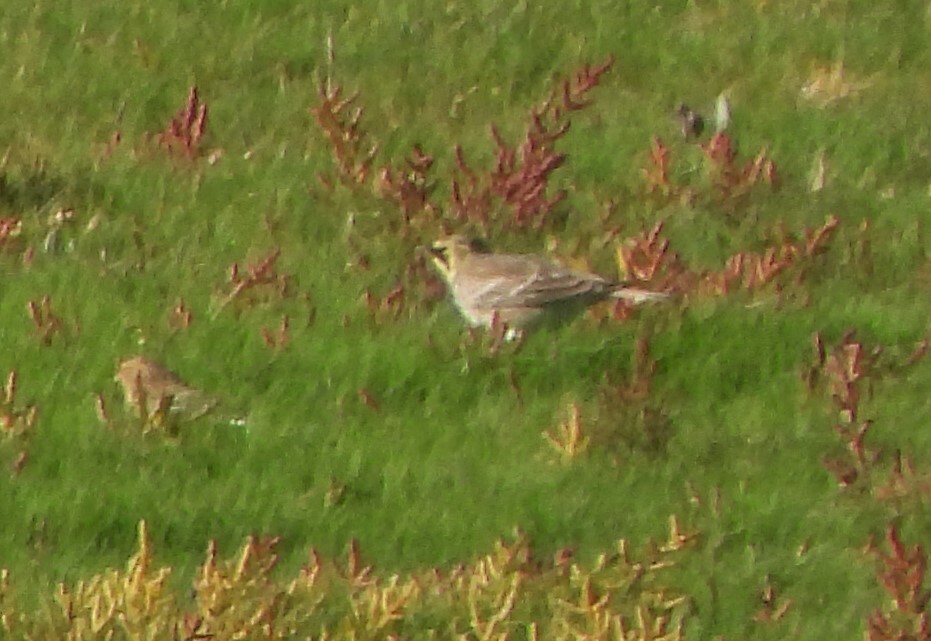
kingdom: Animalia
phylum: Chordata
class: Aves
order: Passeriformes
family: Alaudidae
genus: Eremophila
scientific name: Eremophila alpestris
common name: Horned lark
